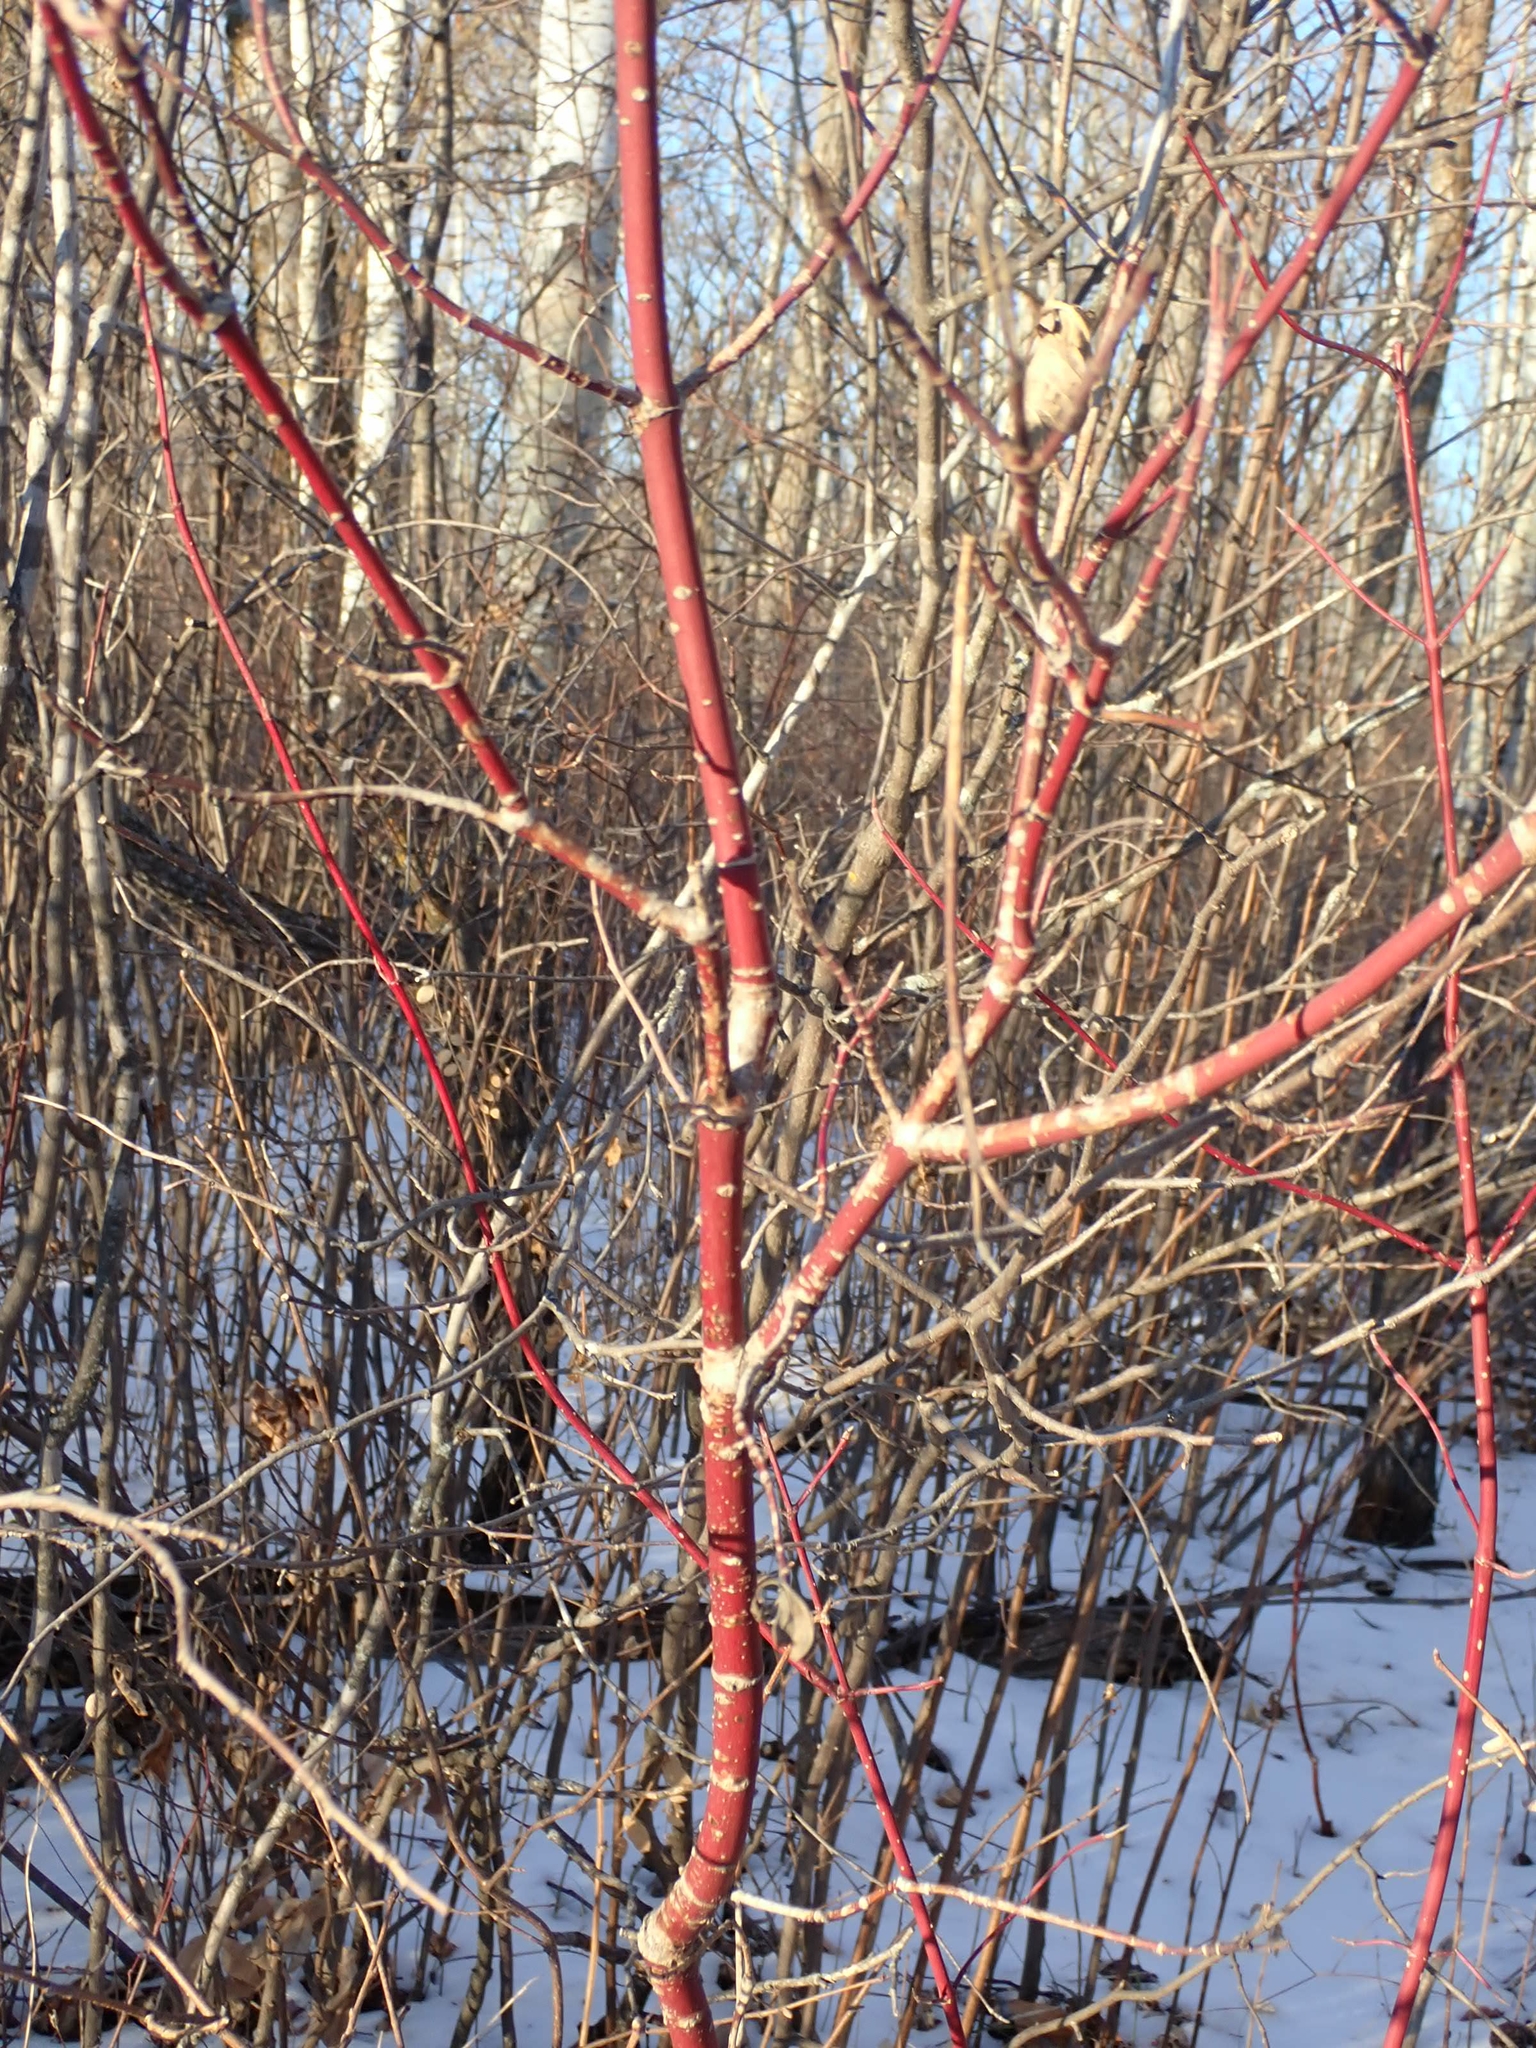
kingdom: Plantae
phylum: Tracheophyta
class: Magnoliopsida
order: Cornales
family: Cornaceae
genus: Cornus
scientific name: Cornus sericea
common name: Red-osier dogwood
